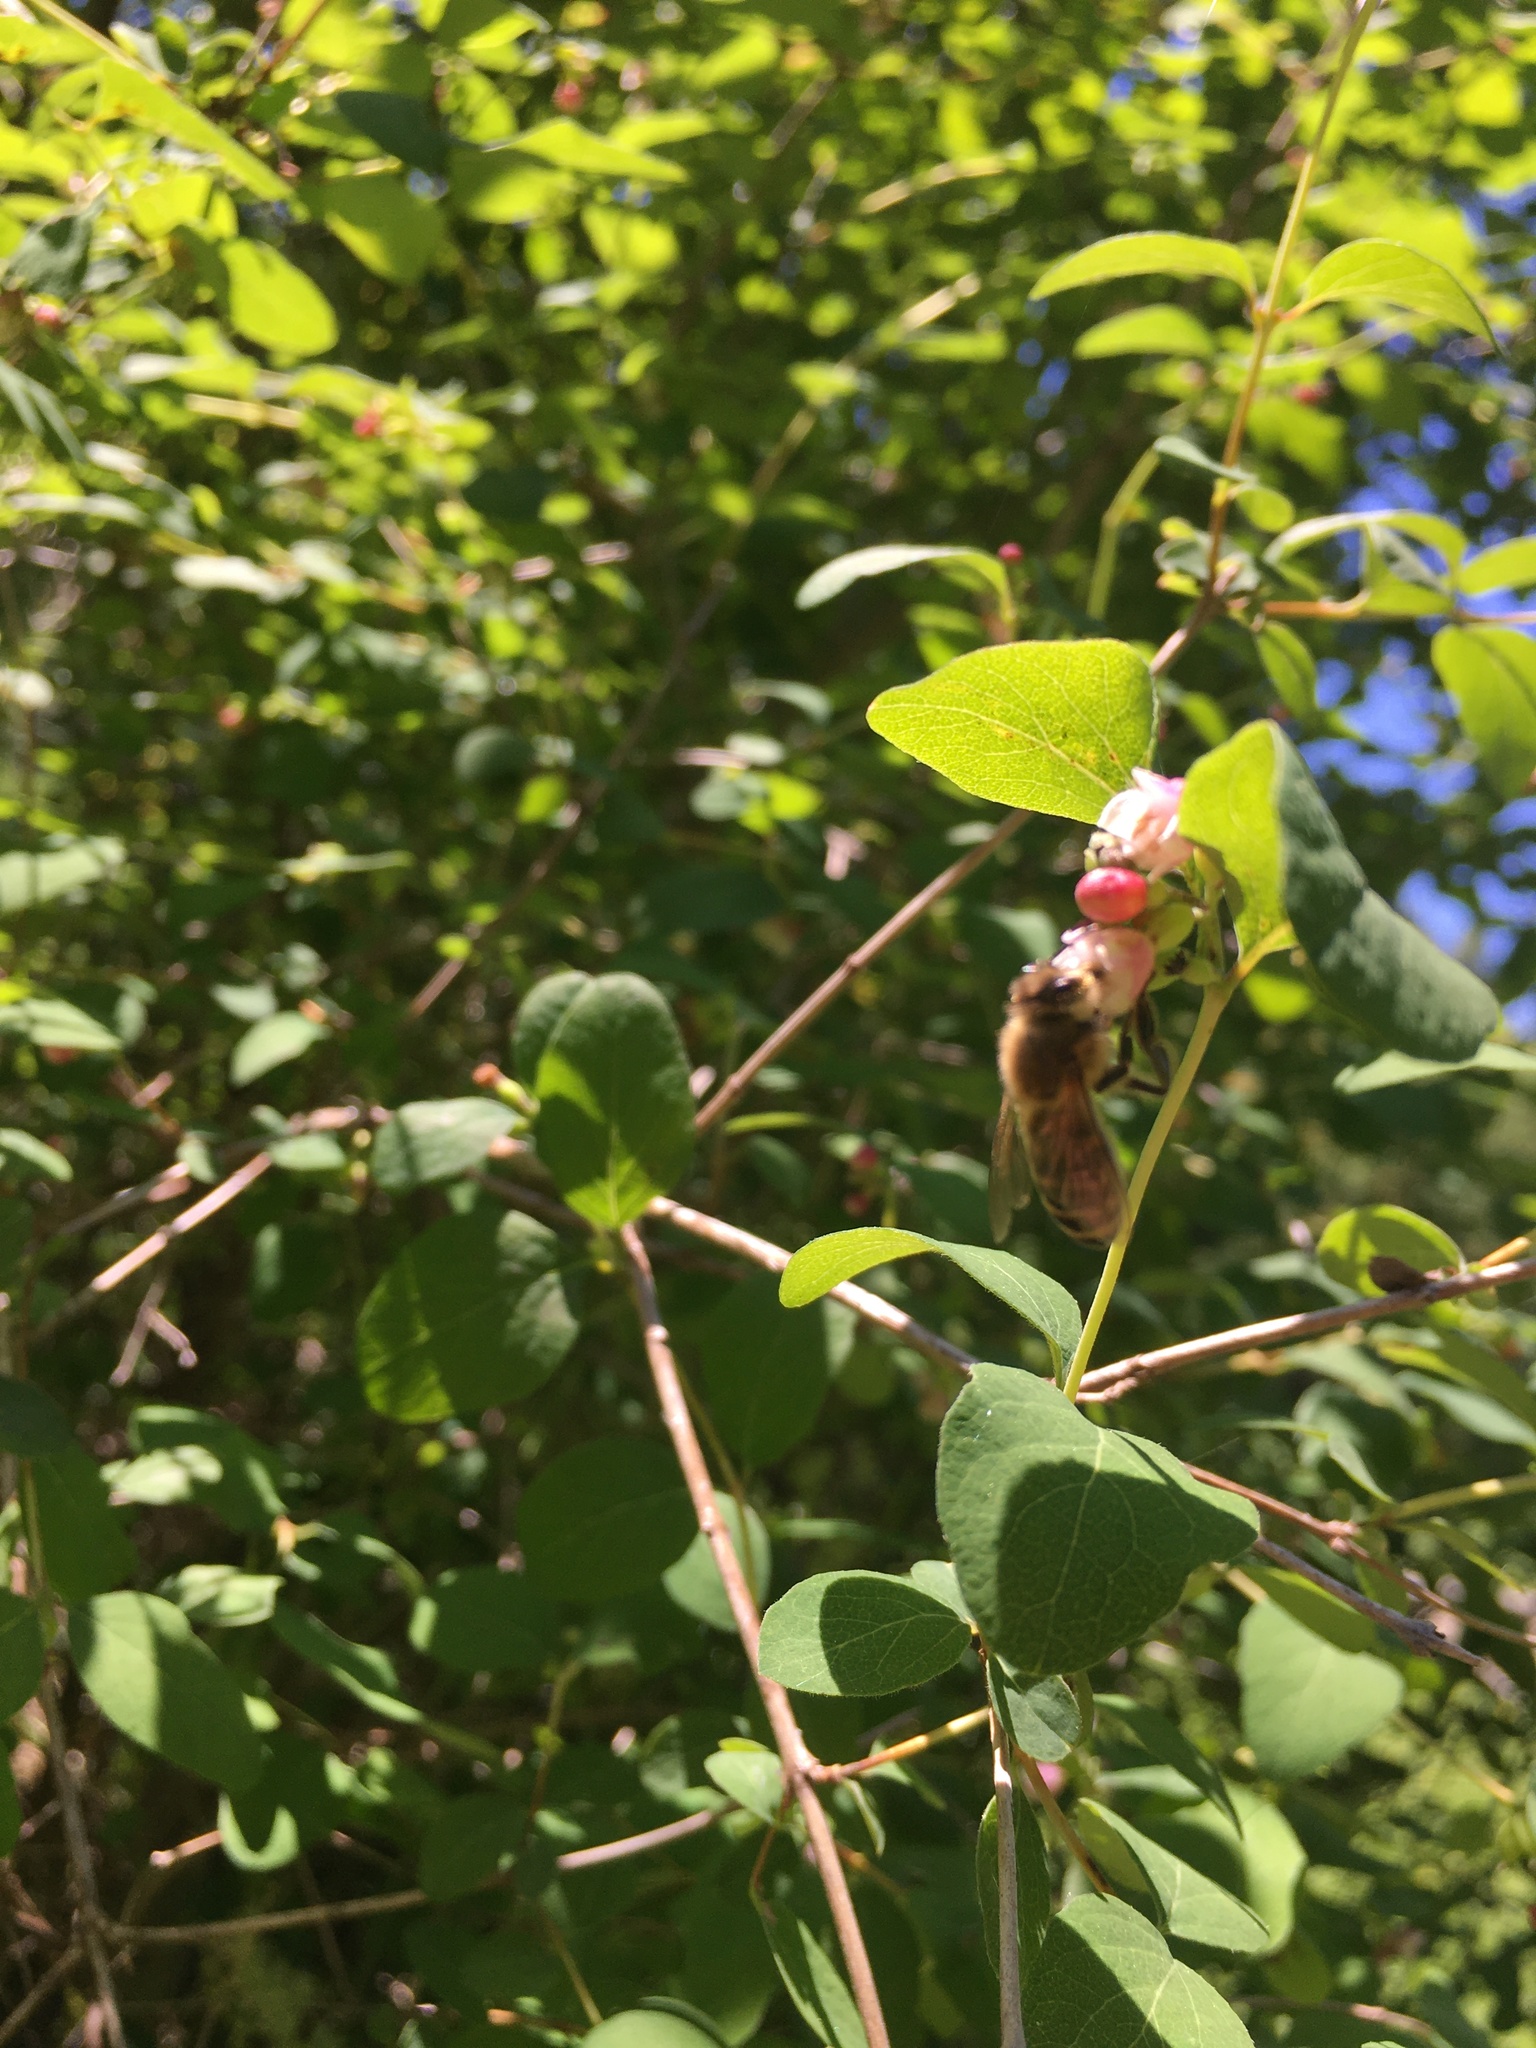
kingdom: Animalia
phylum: Arthropoda
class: Insecta
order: Hymenoptera
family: Apidae
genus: Apis
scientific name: Apis mellifera
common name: Honey bee
